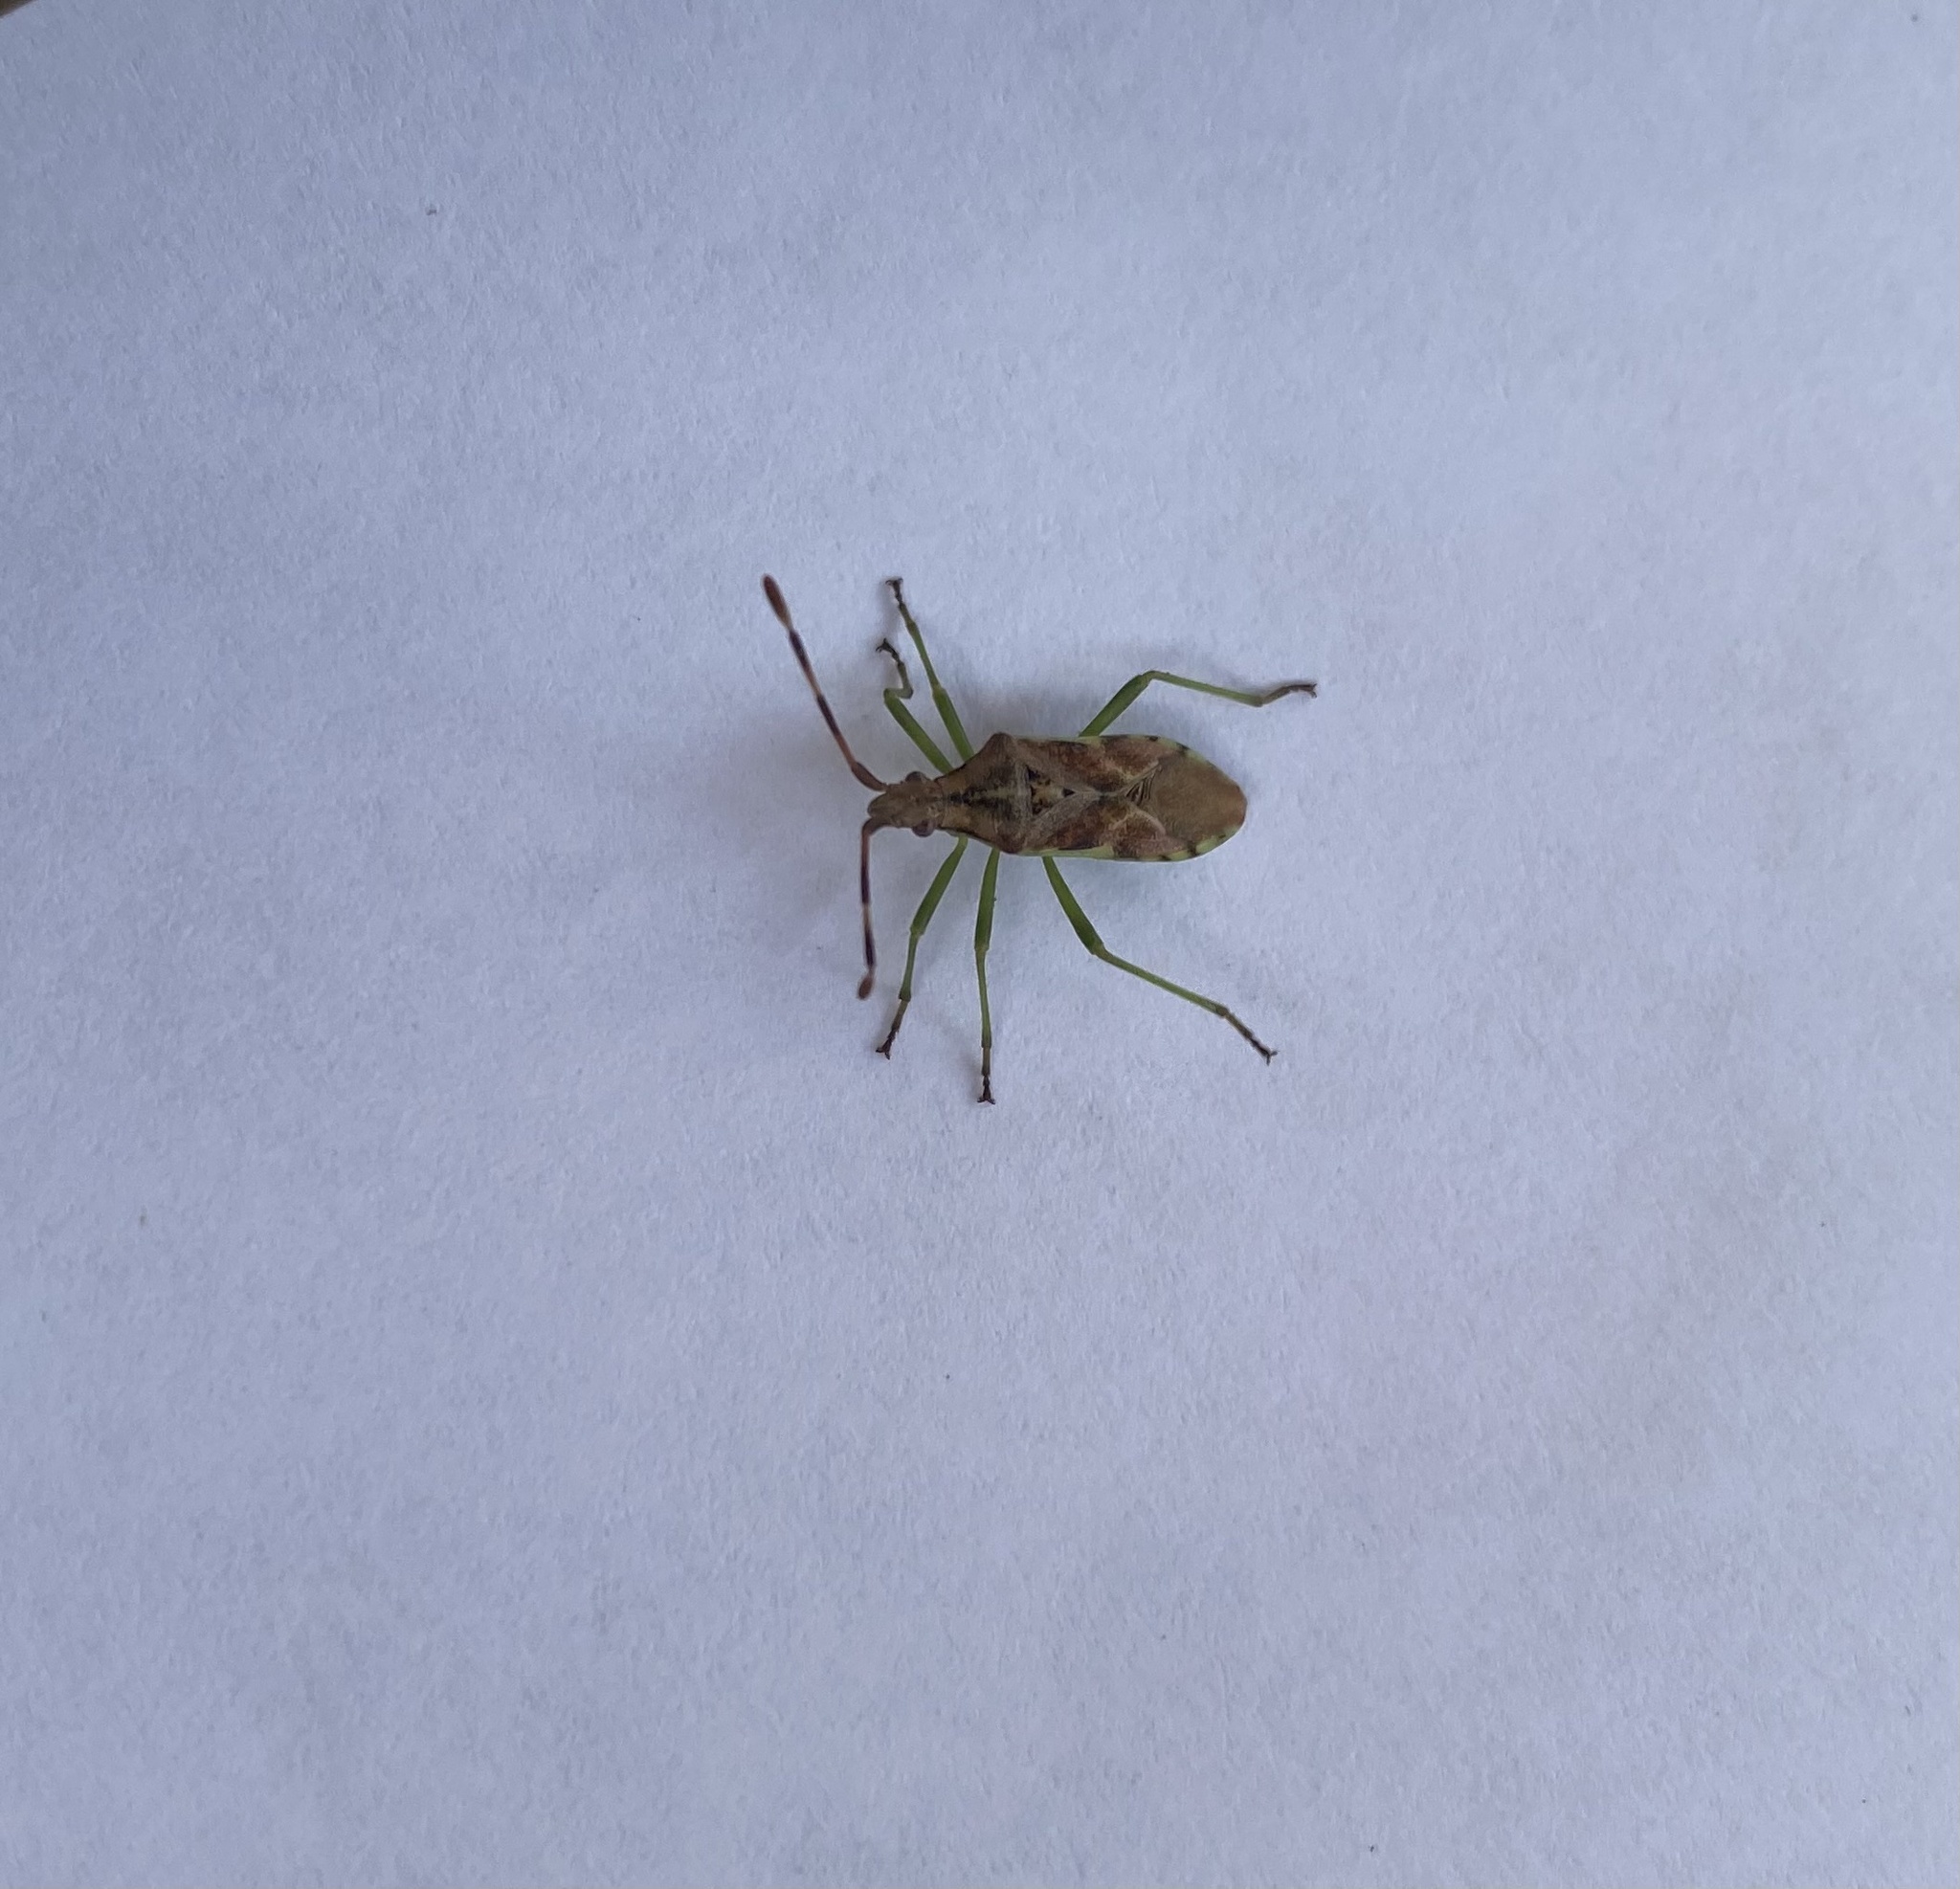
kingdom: Animalia
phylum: Arthropoda
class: Insecta
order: Hemiptera
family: Coreidae
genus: Gonocerus
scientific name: Gonocerus juniperi
